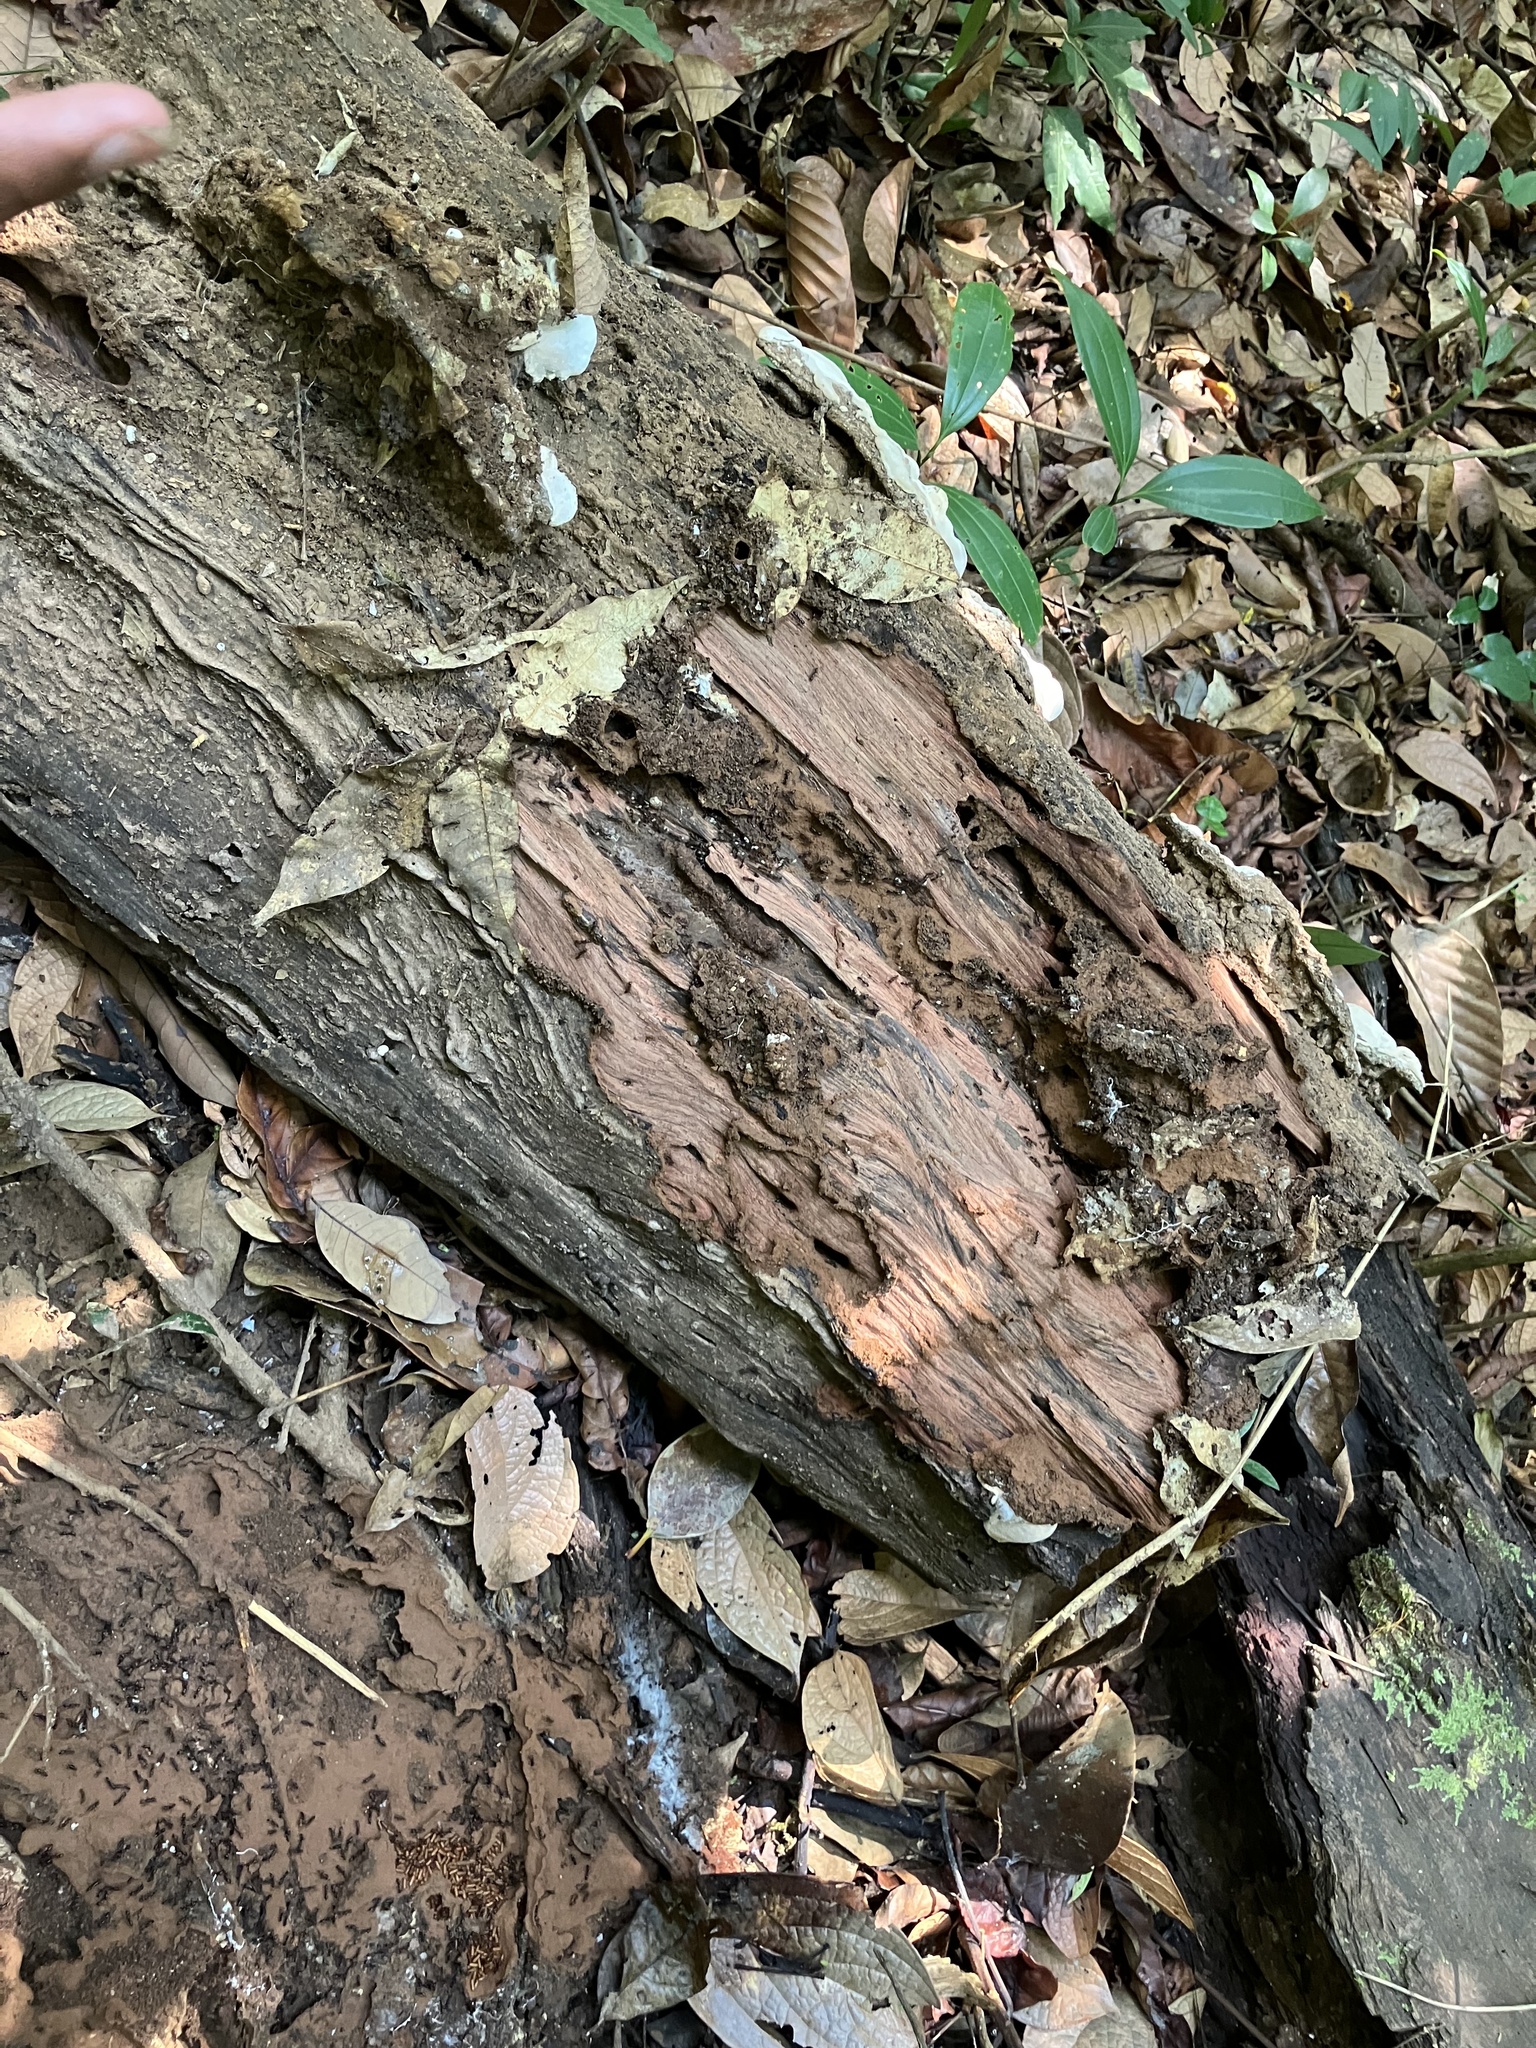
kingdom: Animalia
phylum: Arthropoda
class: Insecta
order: Hymenoptera
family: Formicidae
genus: Leptogenys
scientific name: Leptogenys processionalis
